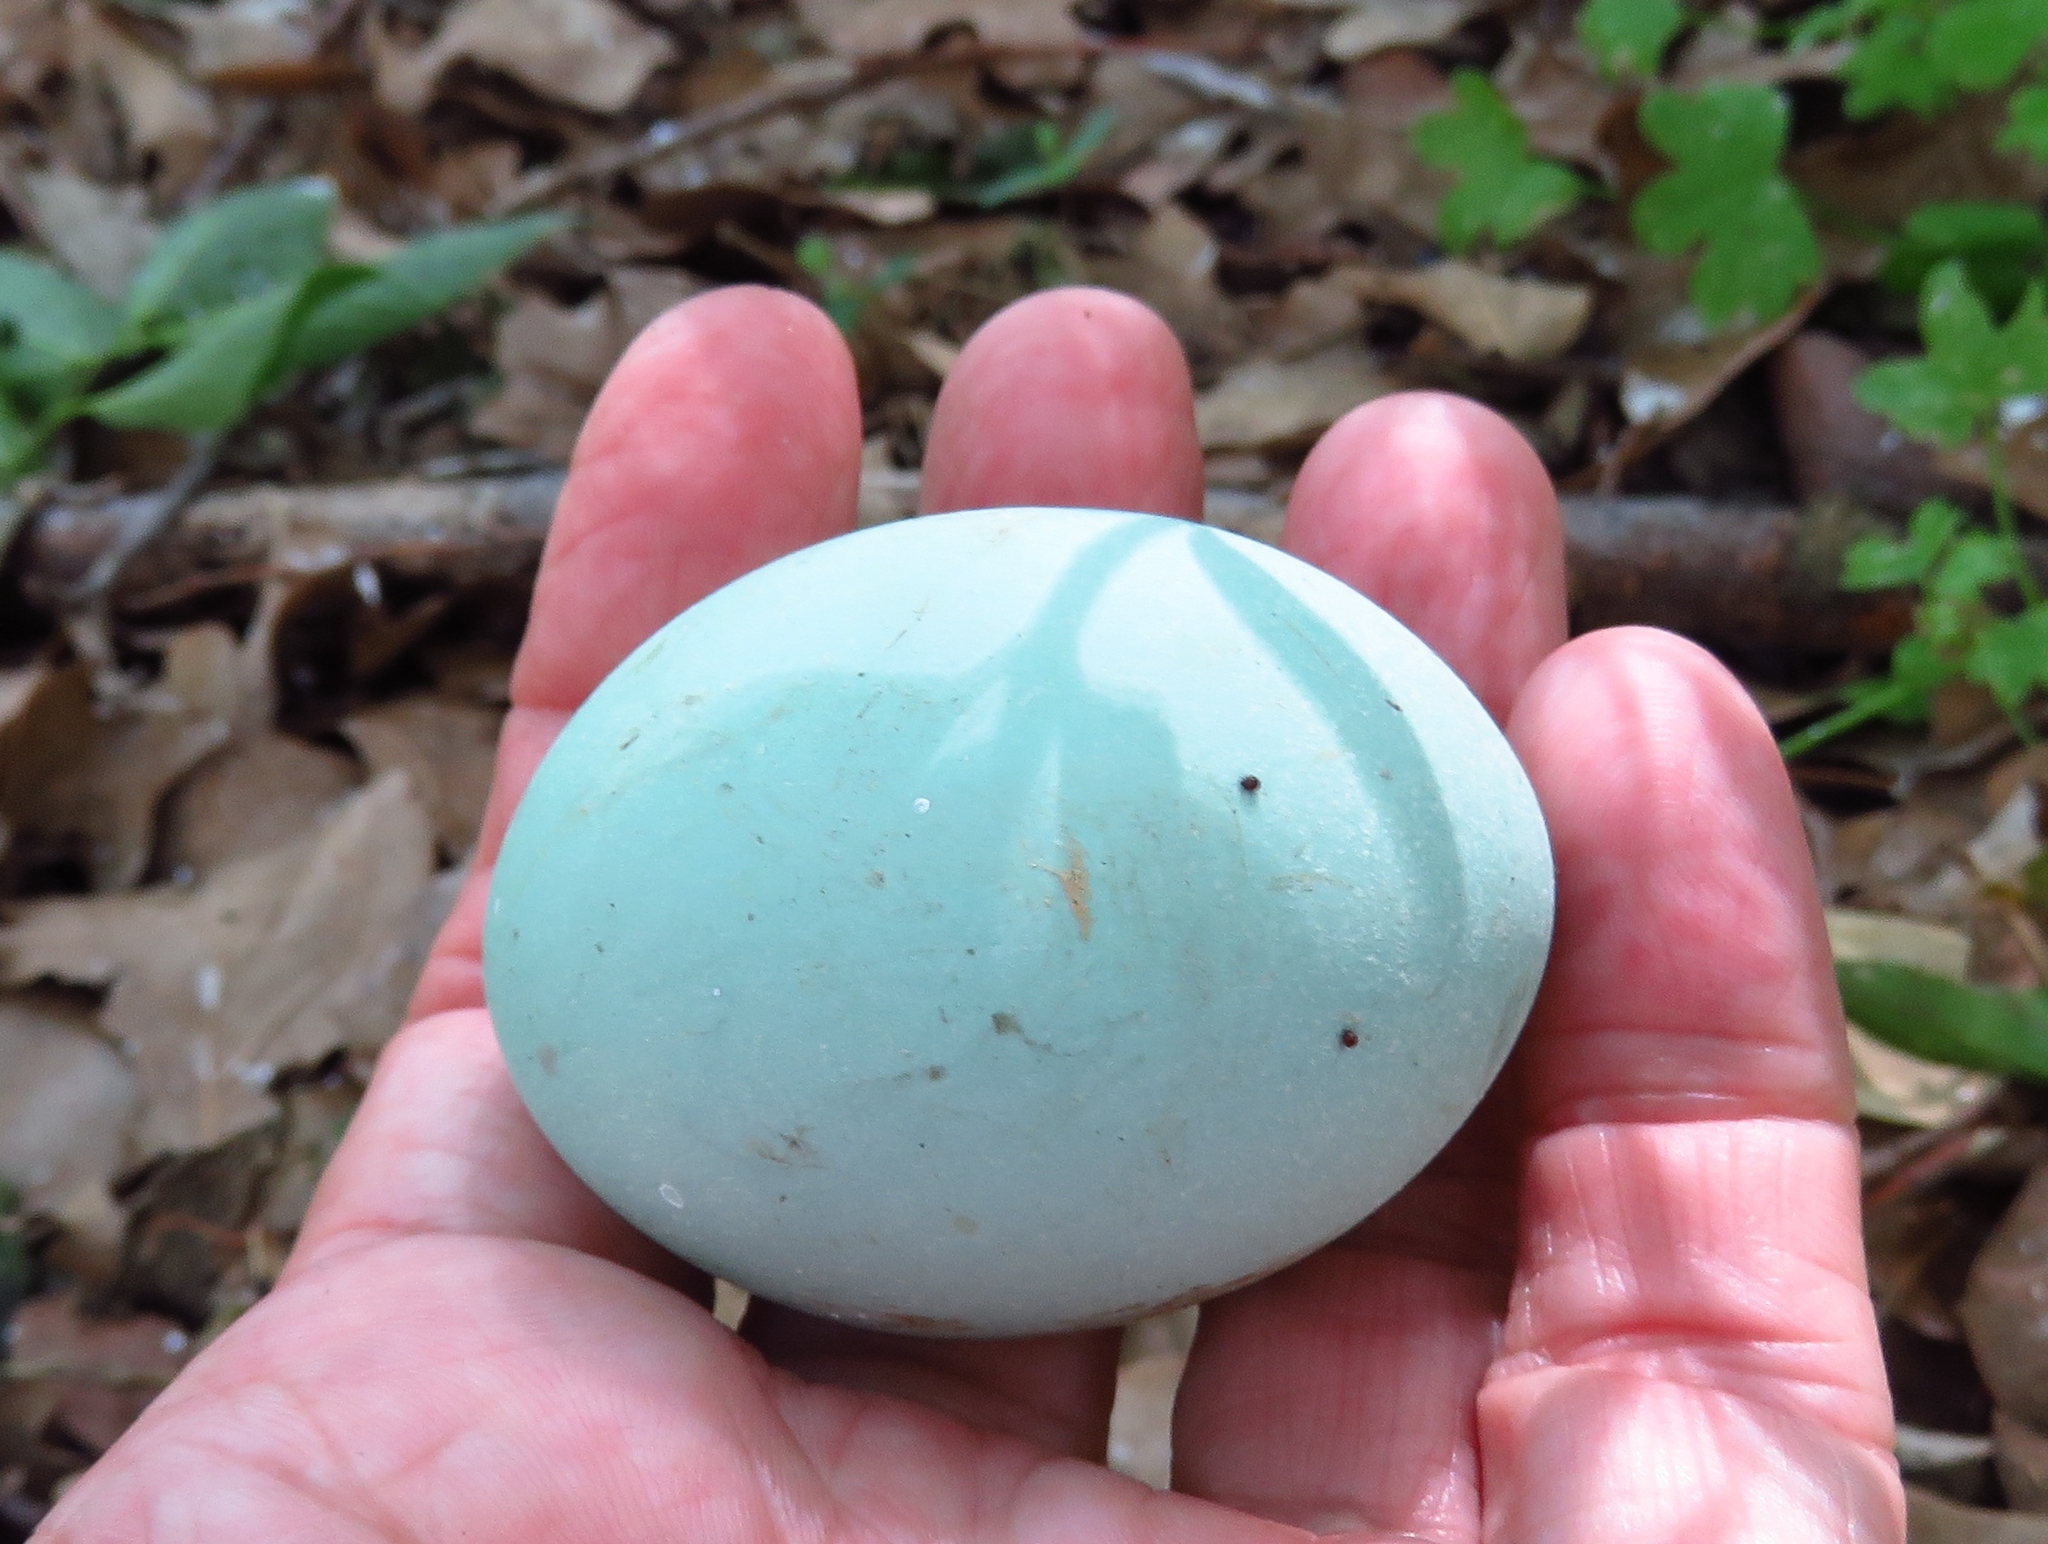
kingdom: Animalia
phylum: Chordata
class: Aves
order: Pelecaniformes
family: Ardeidae
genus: Ardea
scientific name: Ardea alba
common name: Great egret
